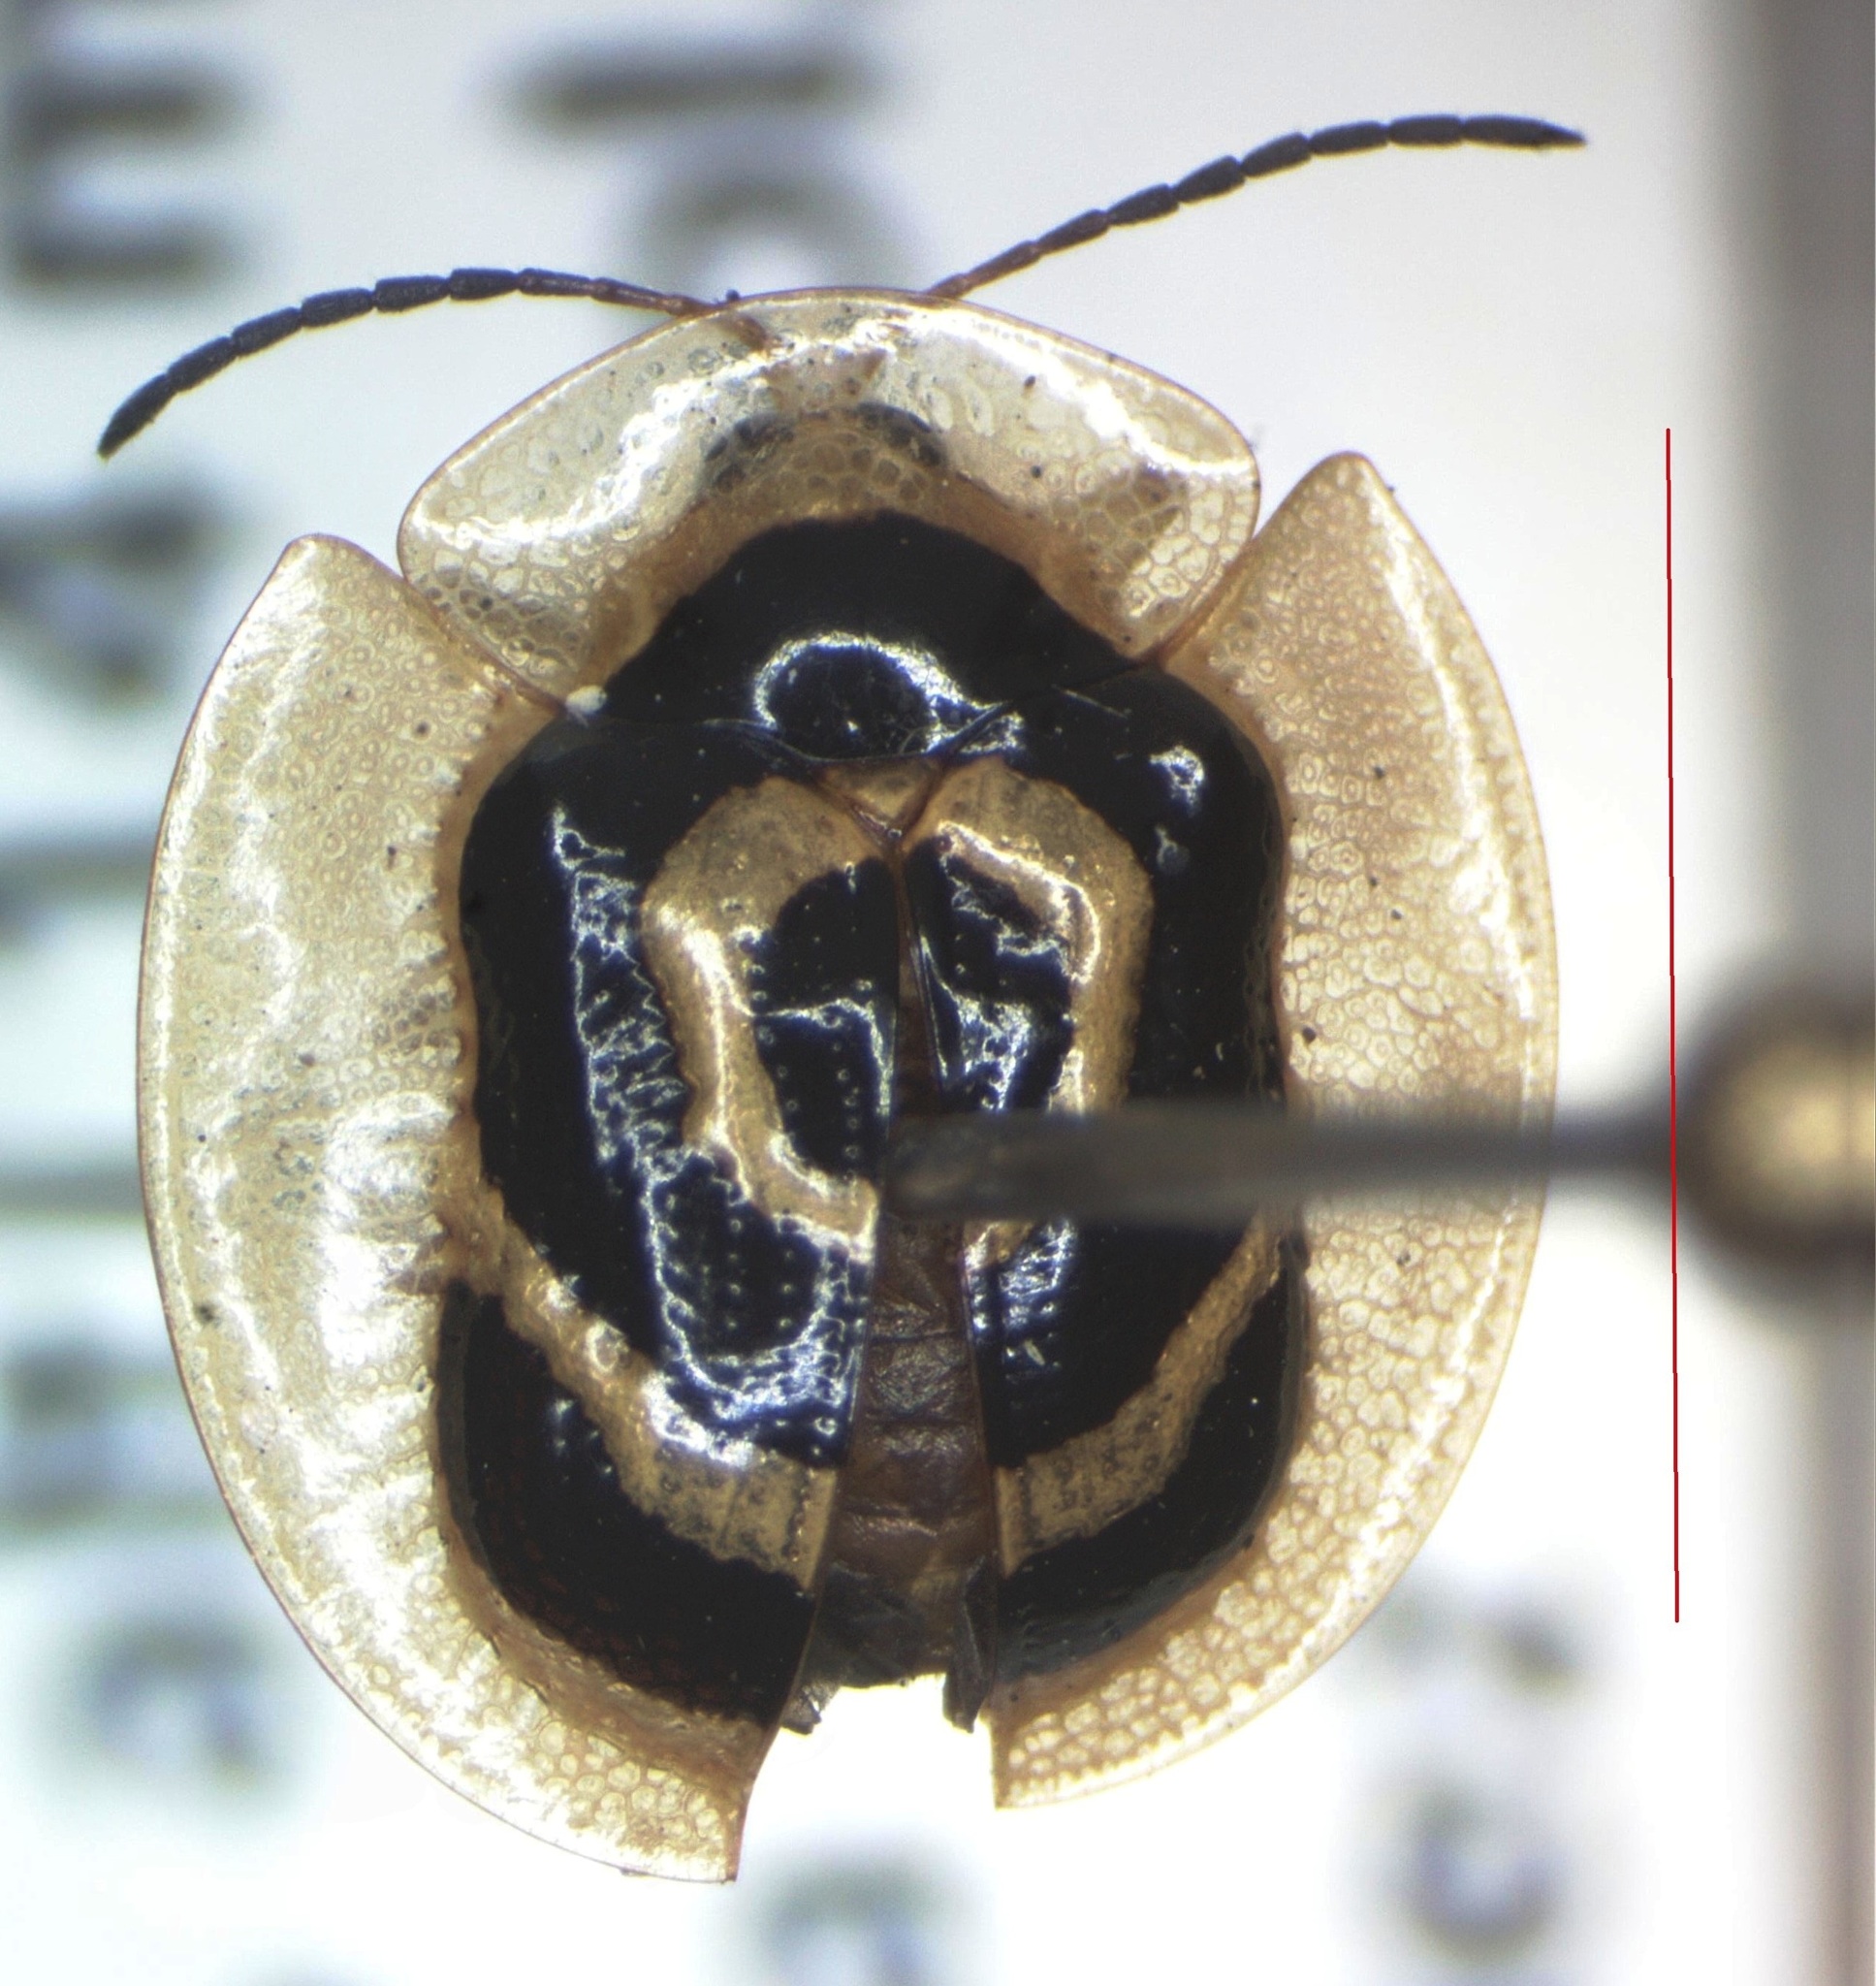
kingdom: Animalia
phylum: Arthropoda
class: Insecta
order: Coleoptera
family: Chrysomelidae
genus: Ischnocodia
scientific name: Ischnocodia annulus
